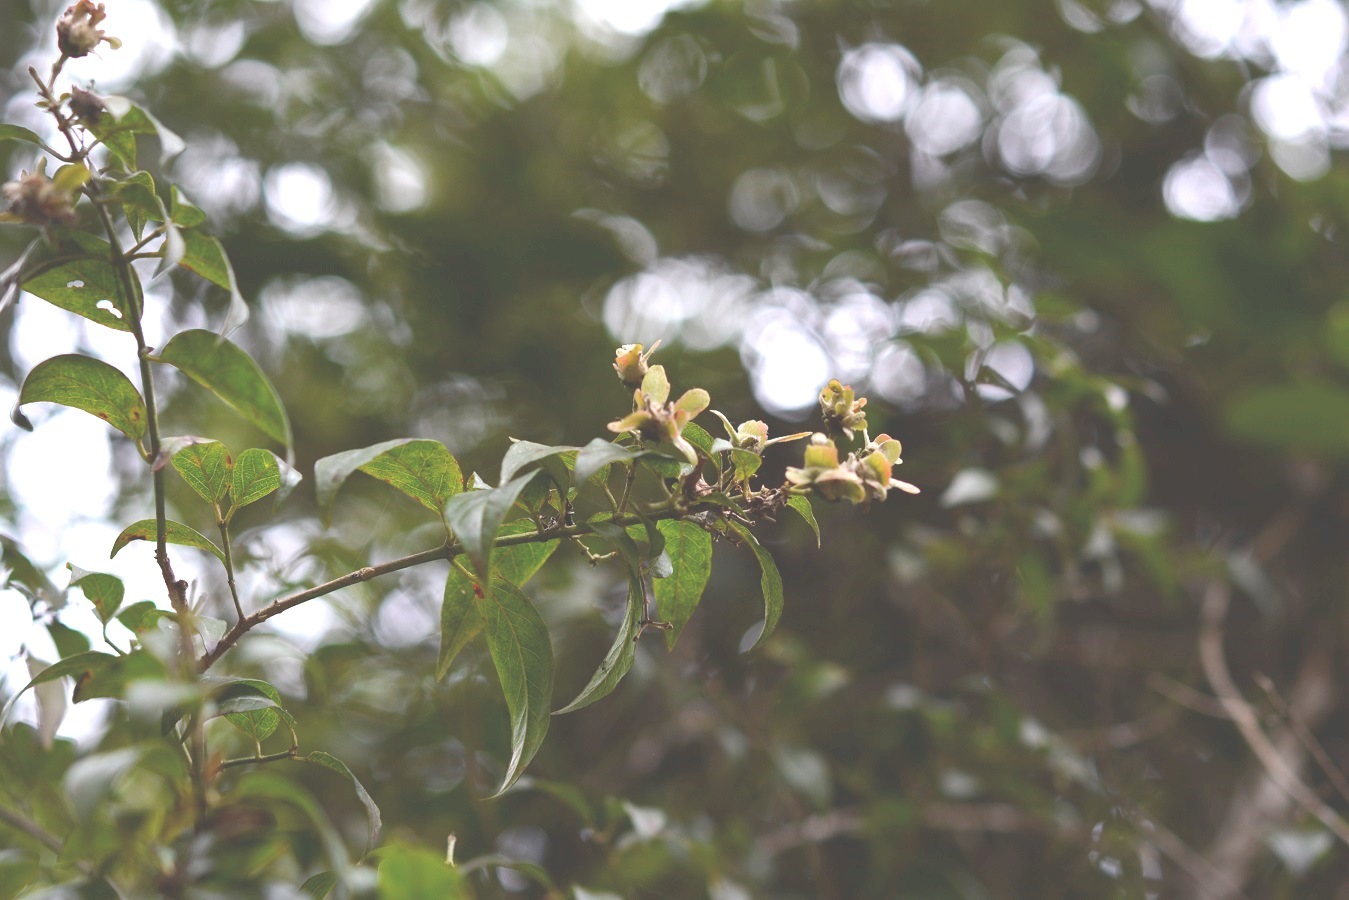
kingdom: Plantae
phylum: Tracheophyta
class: Magnoliopsida
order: Malpighiales
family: Malpighiaceae
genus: Tetrapterys
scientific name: Tetrapterys schiedeana
